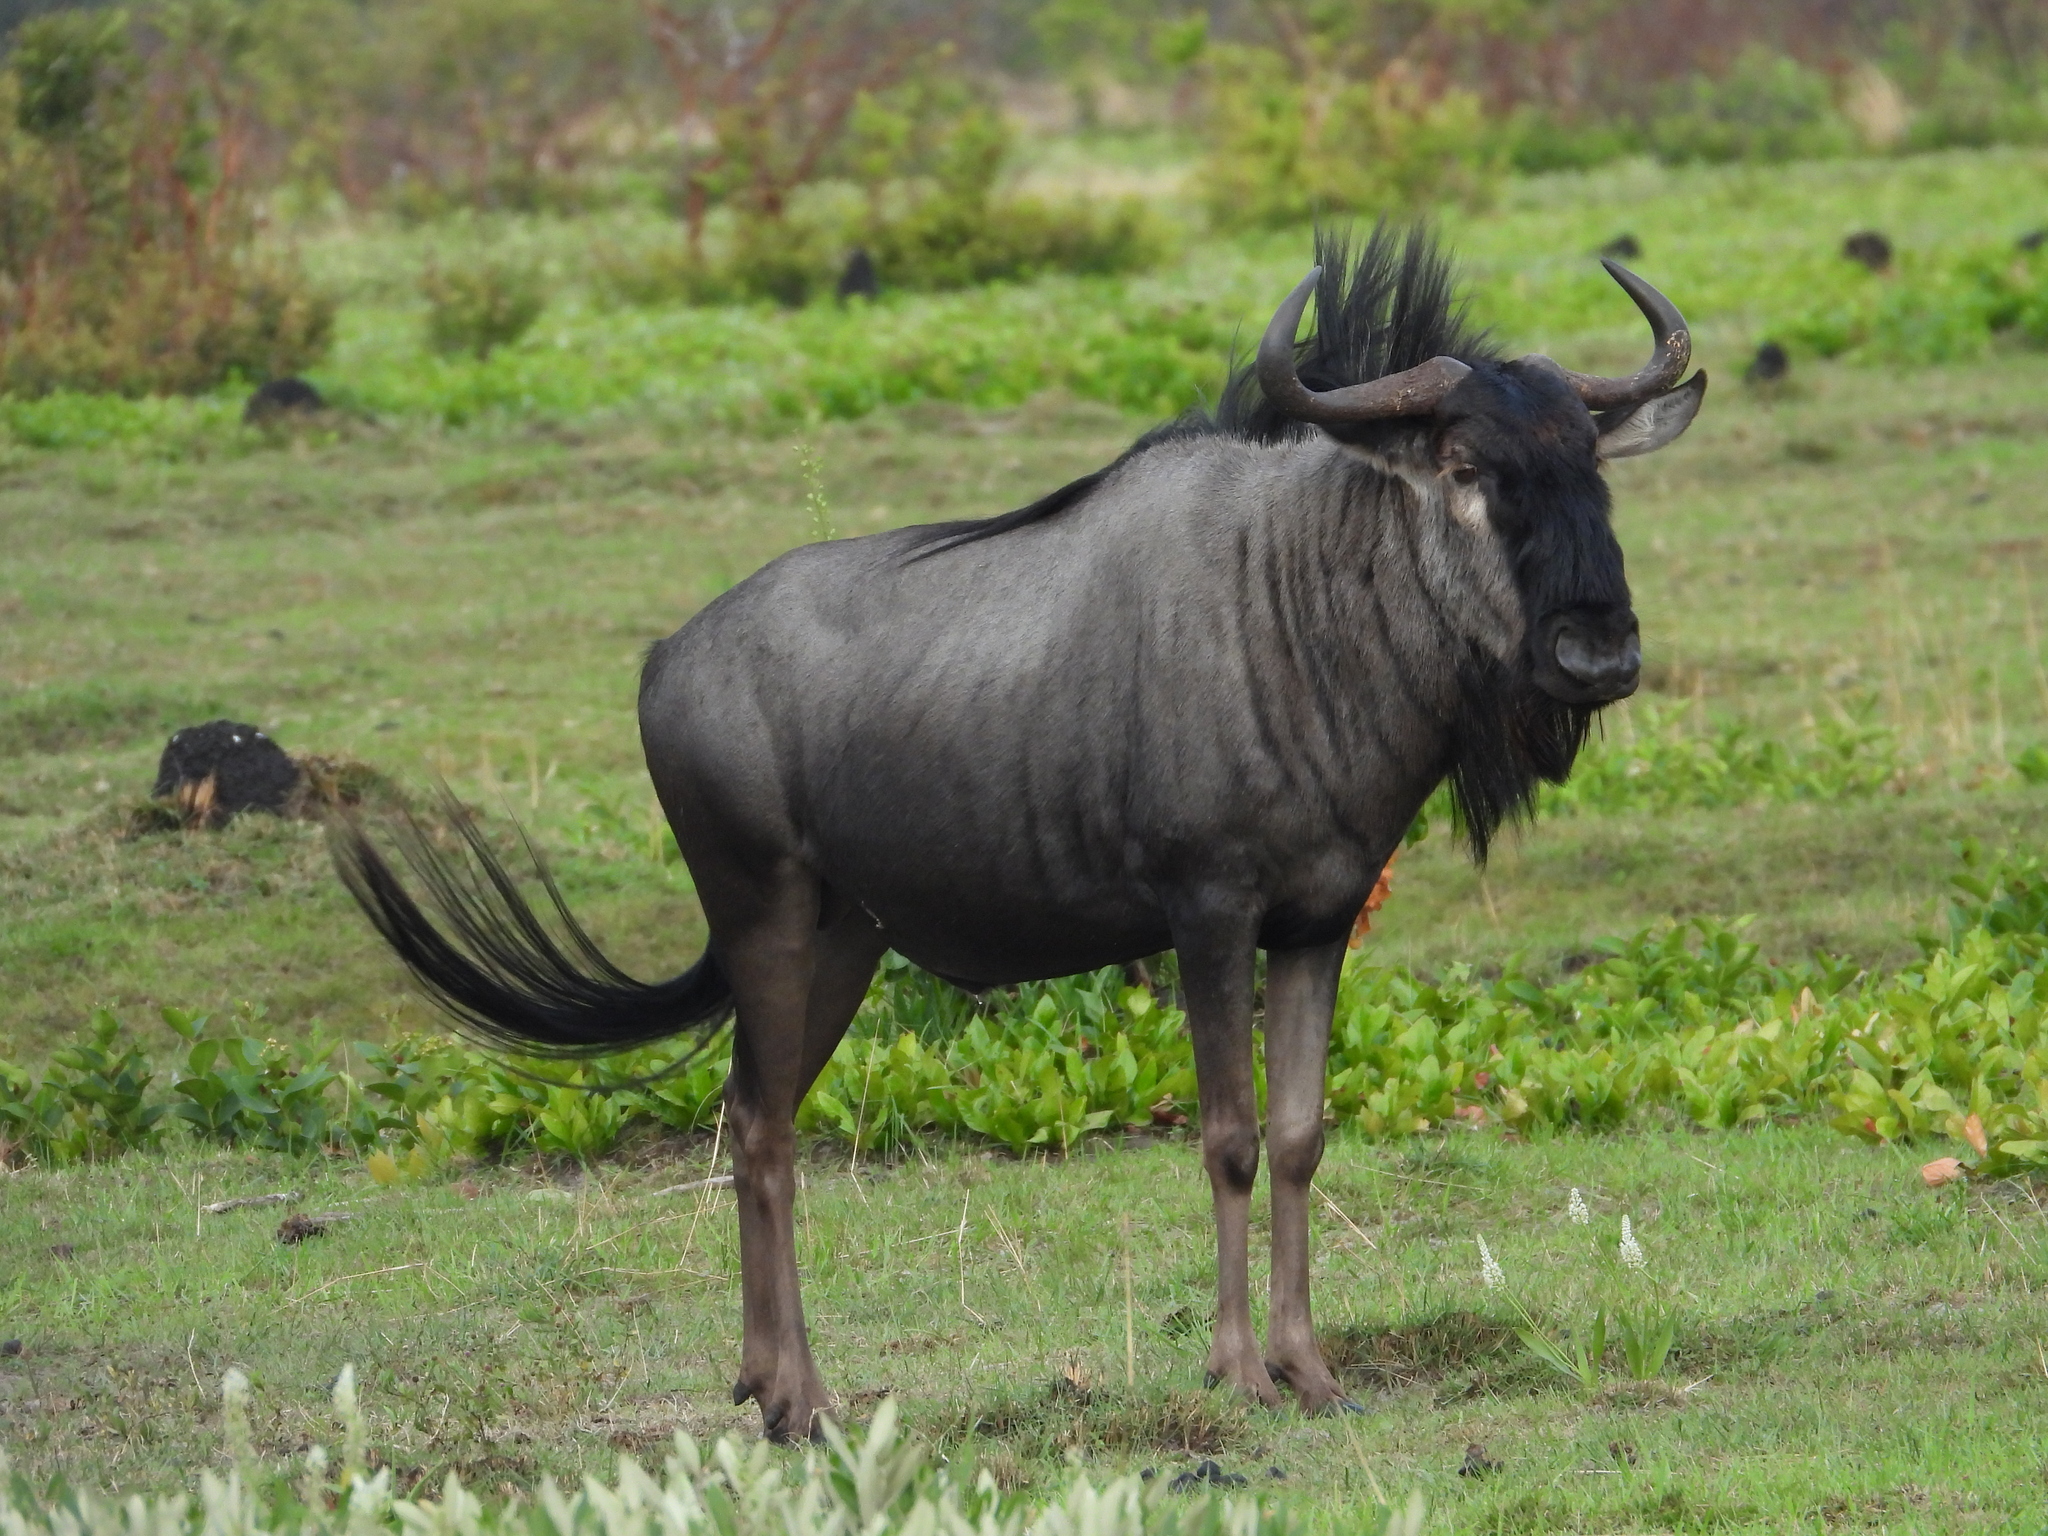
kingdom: Animalia
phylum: Chordata
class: Mammalia
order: Artiodactyla
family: Bovidae
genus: Connochaetes
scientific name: Connochaetes taurinus
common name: Blue wildebeest
